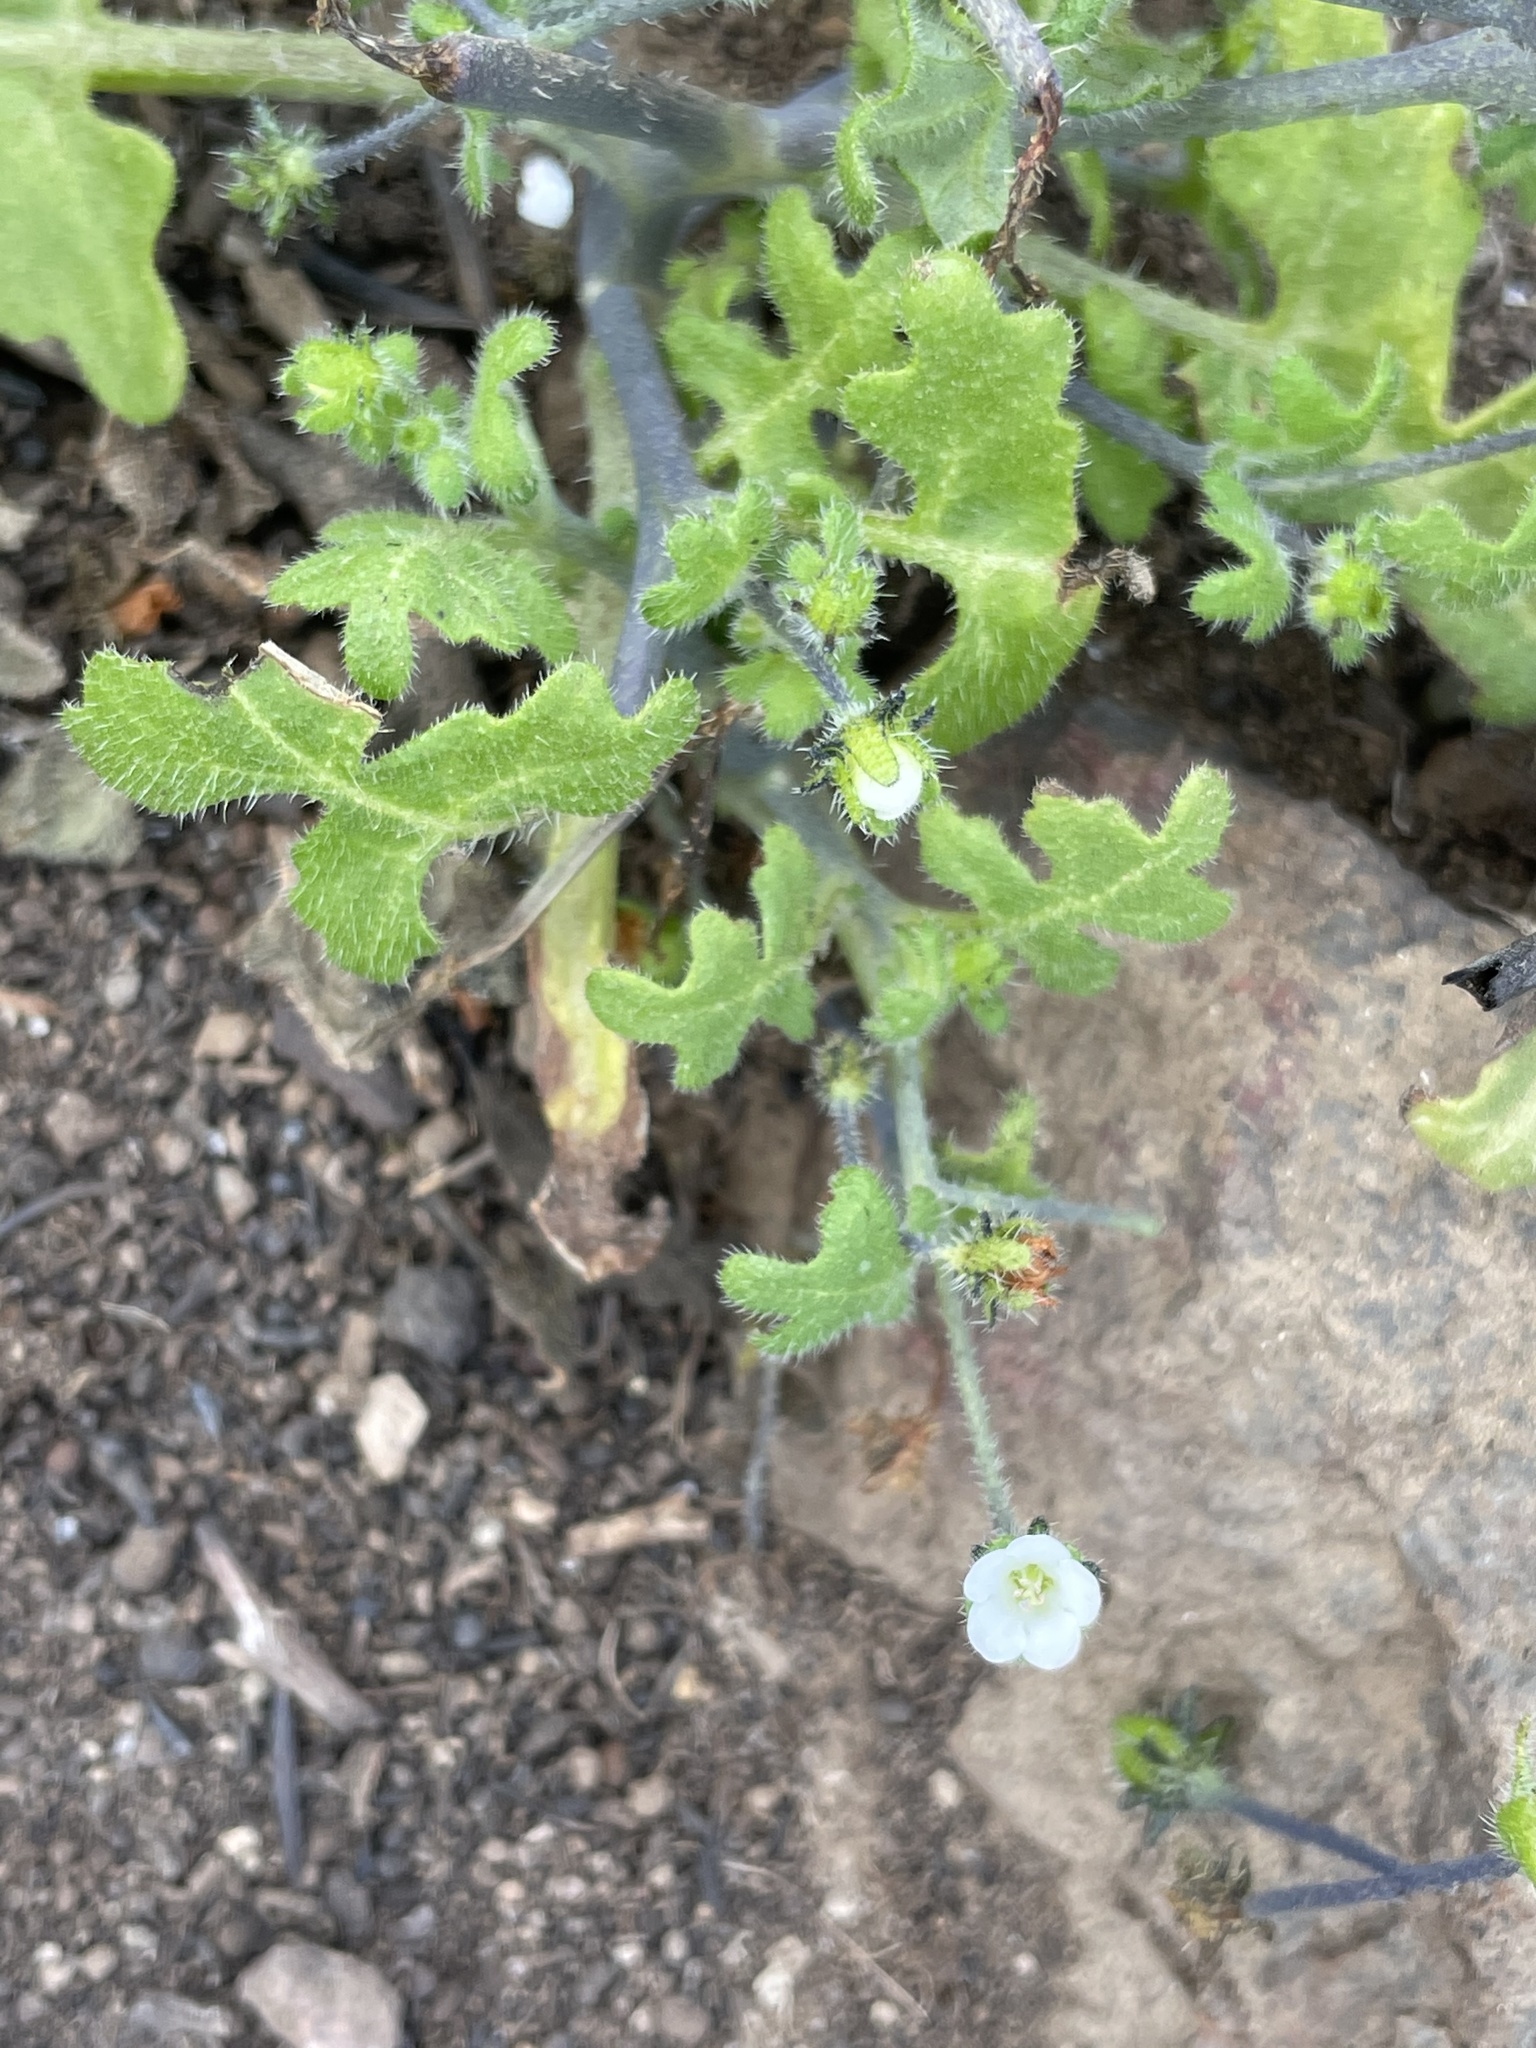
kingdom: Plantae
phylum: Tracheophyta
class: Magnoliopsida
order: Boraginales
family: Hydrophyllaceae
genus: Pholistoma
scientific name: Pholistoma racemosum
